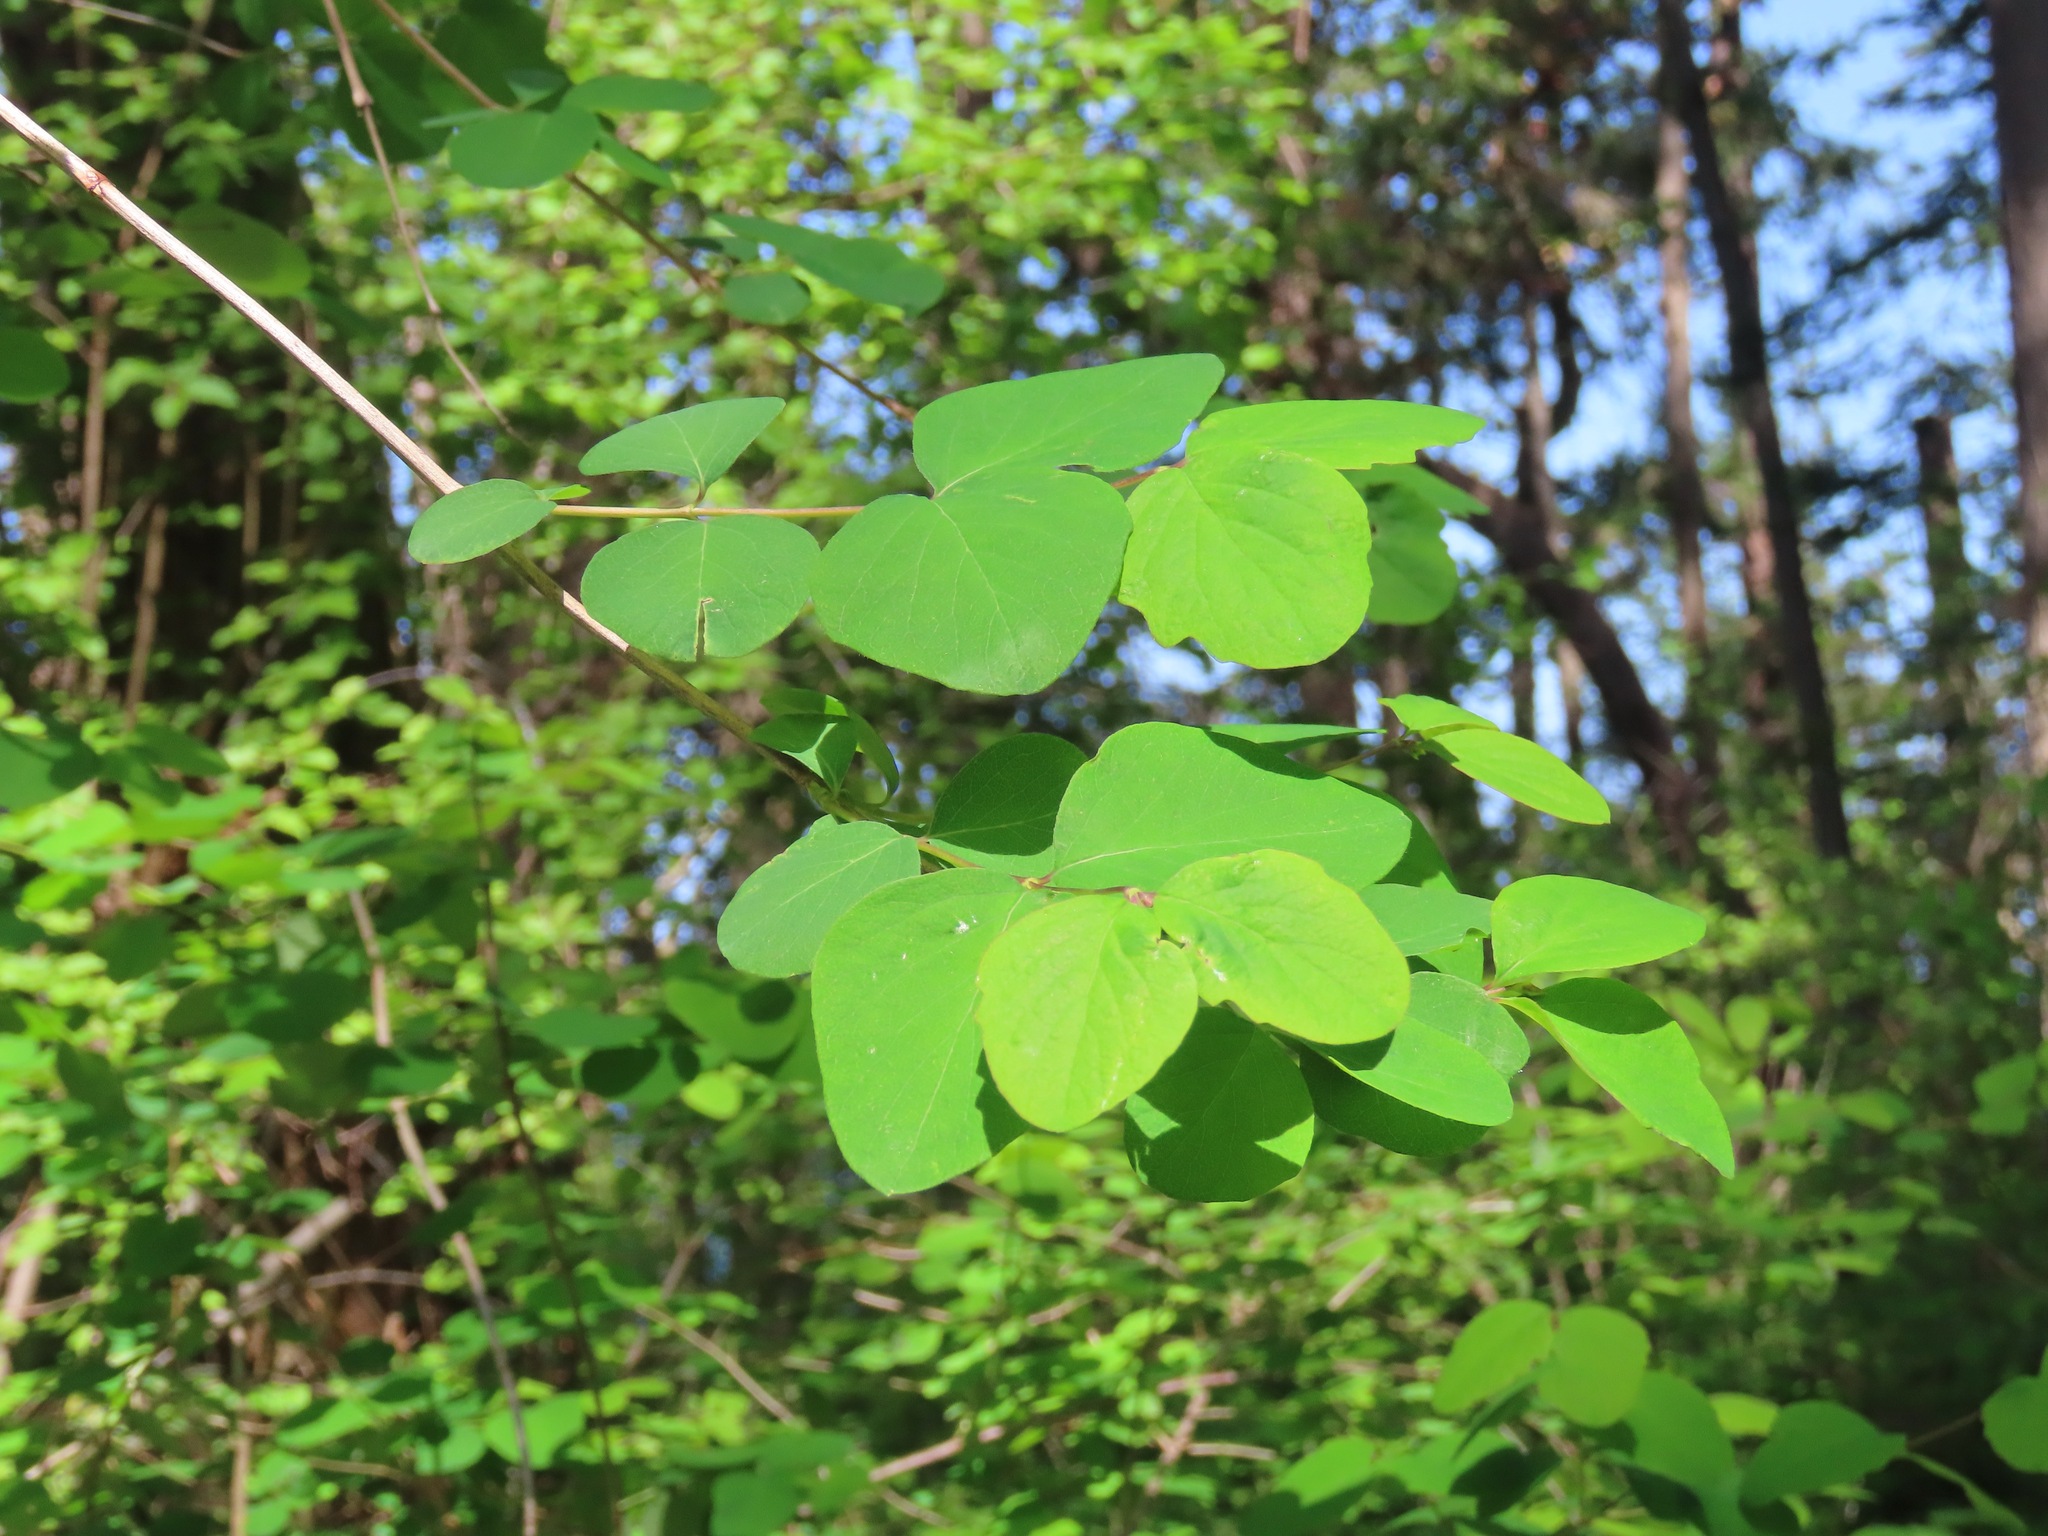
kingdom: Plantae
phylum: Tracheophyta
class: Magnoliopsida
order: Dipsacales
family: Caprifoliaceae
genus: Symphoricarpos
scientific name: Symphoricarpos albus
